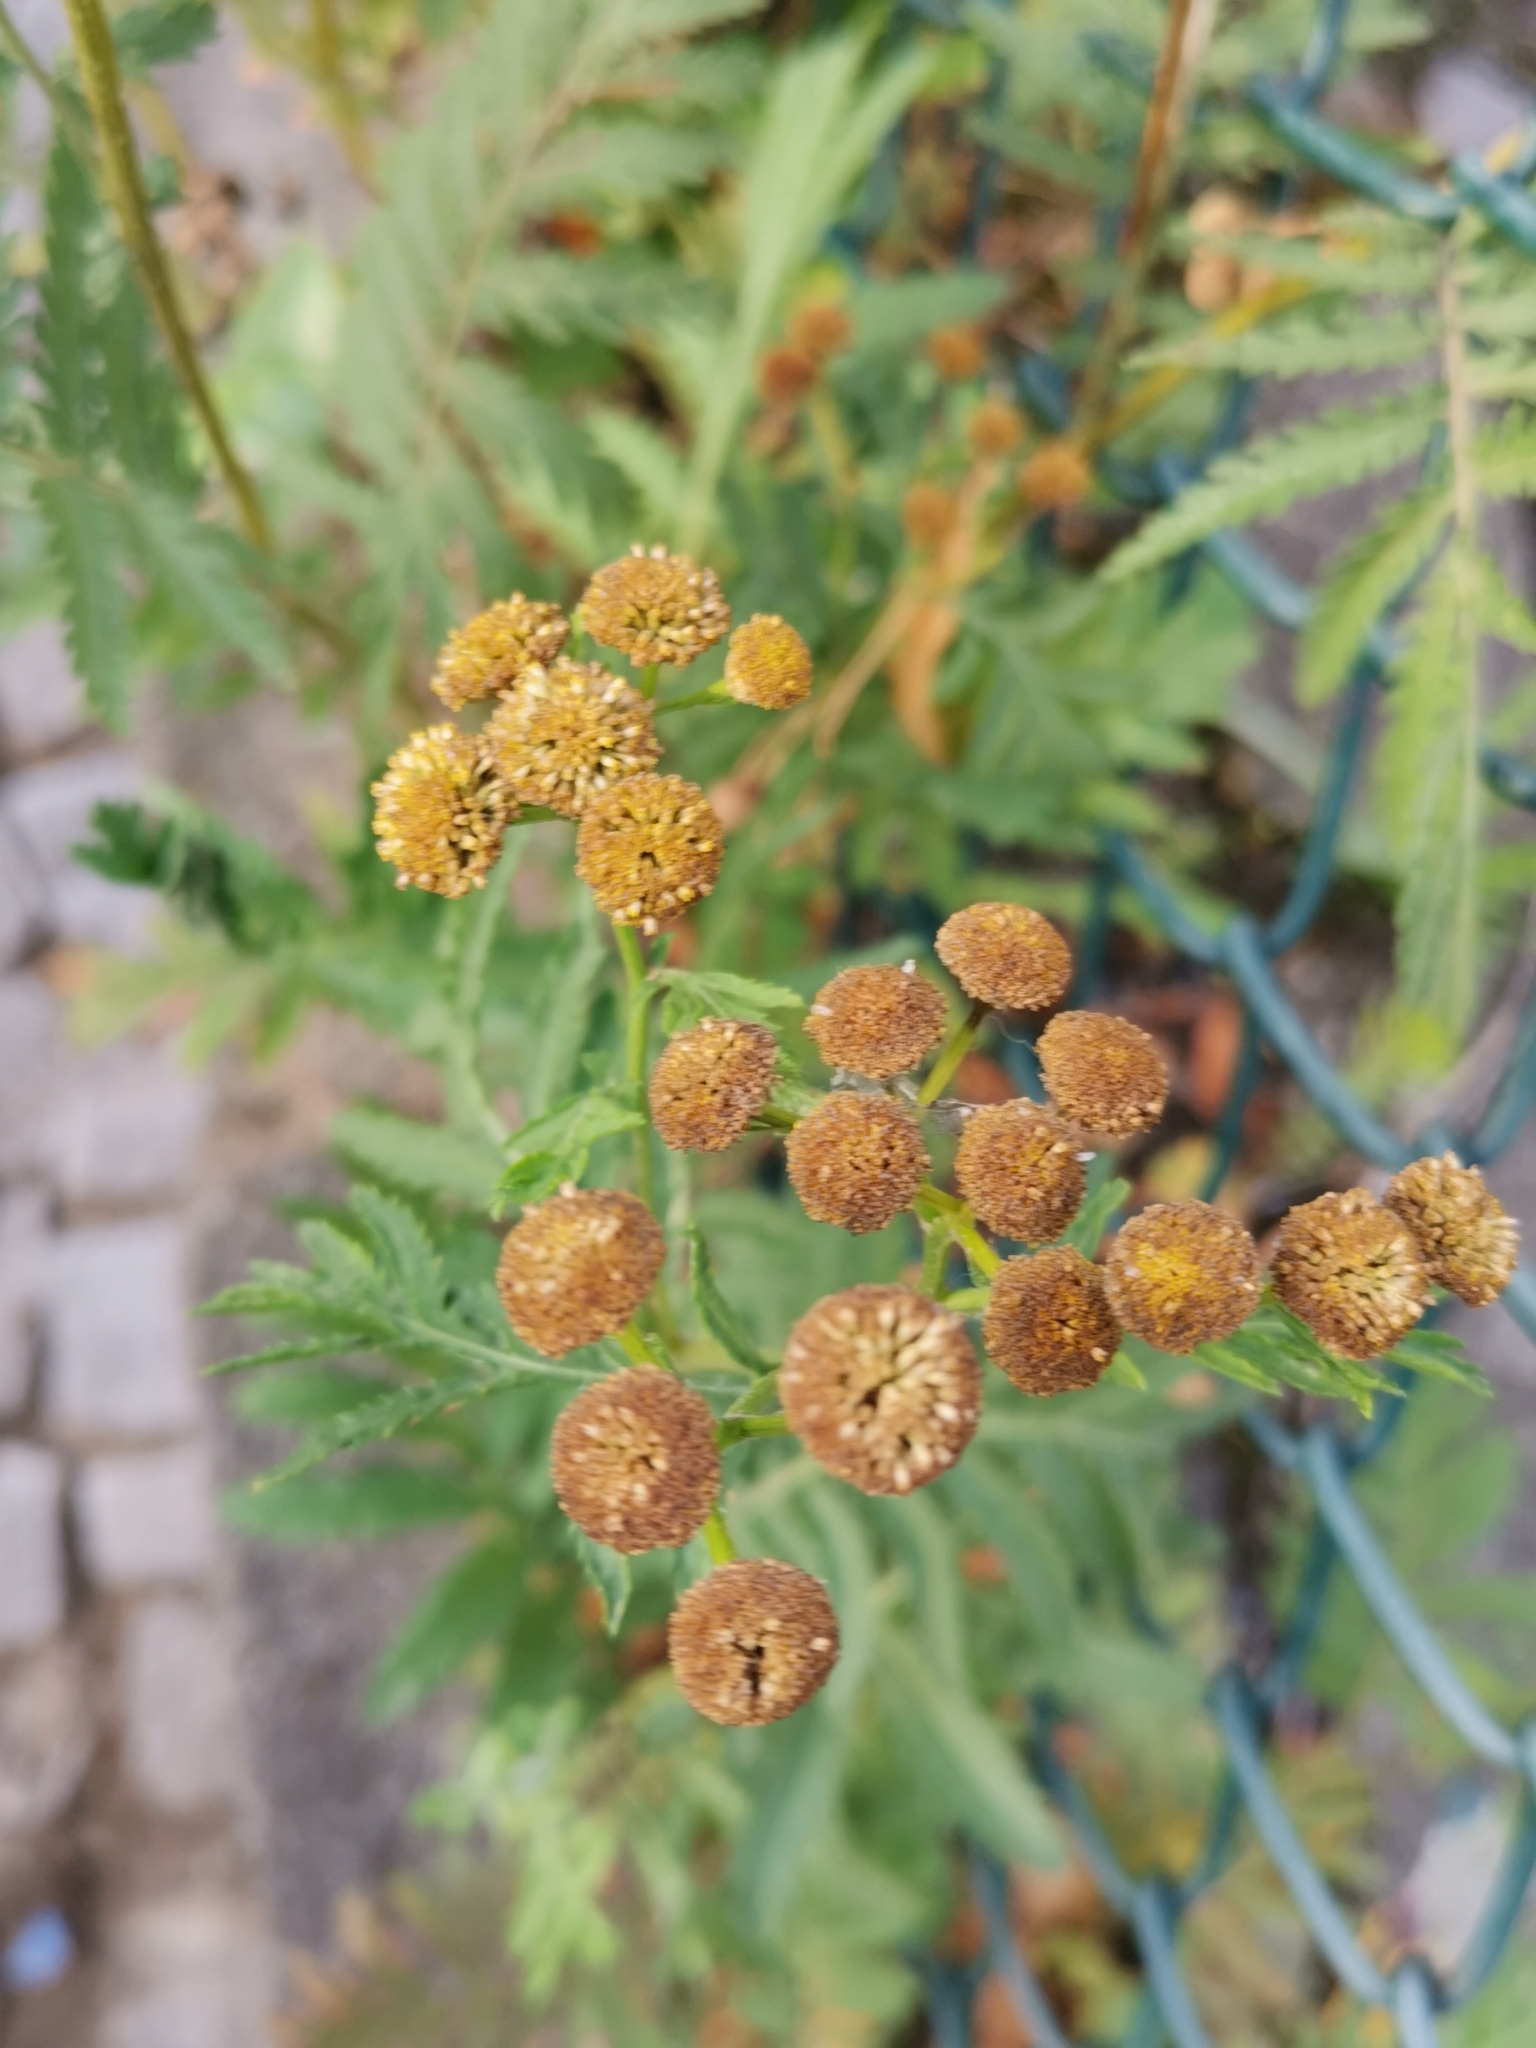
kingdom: Plantae
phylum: Tracheophyta
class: Magnoliopsida
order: Asterales
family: Asteraceae
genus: Tanacetum
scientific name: Tanacetum vulgare
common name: Common tansy
